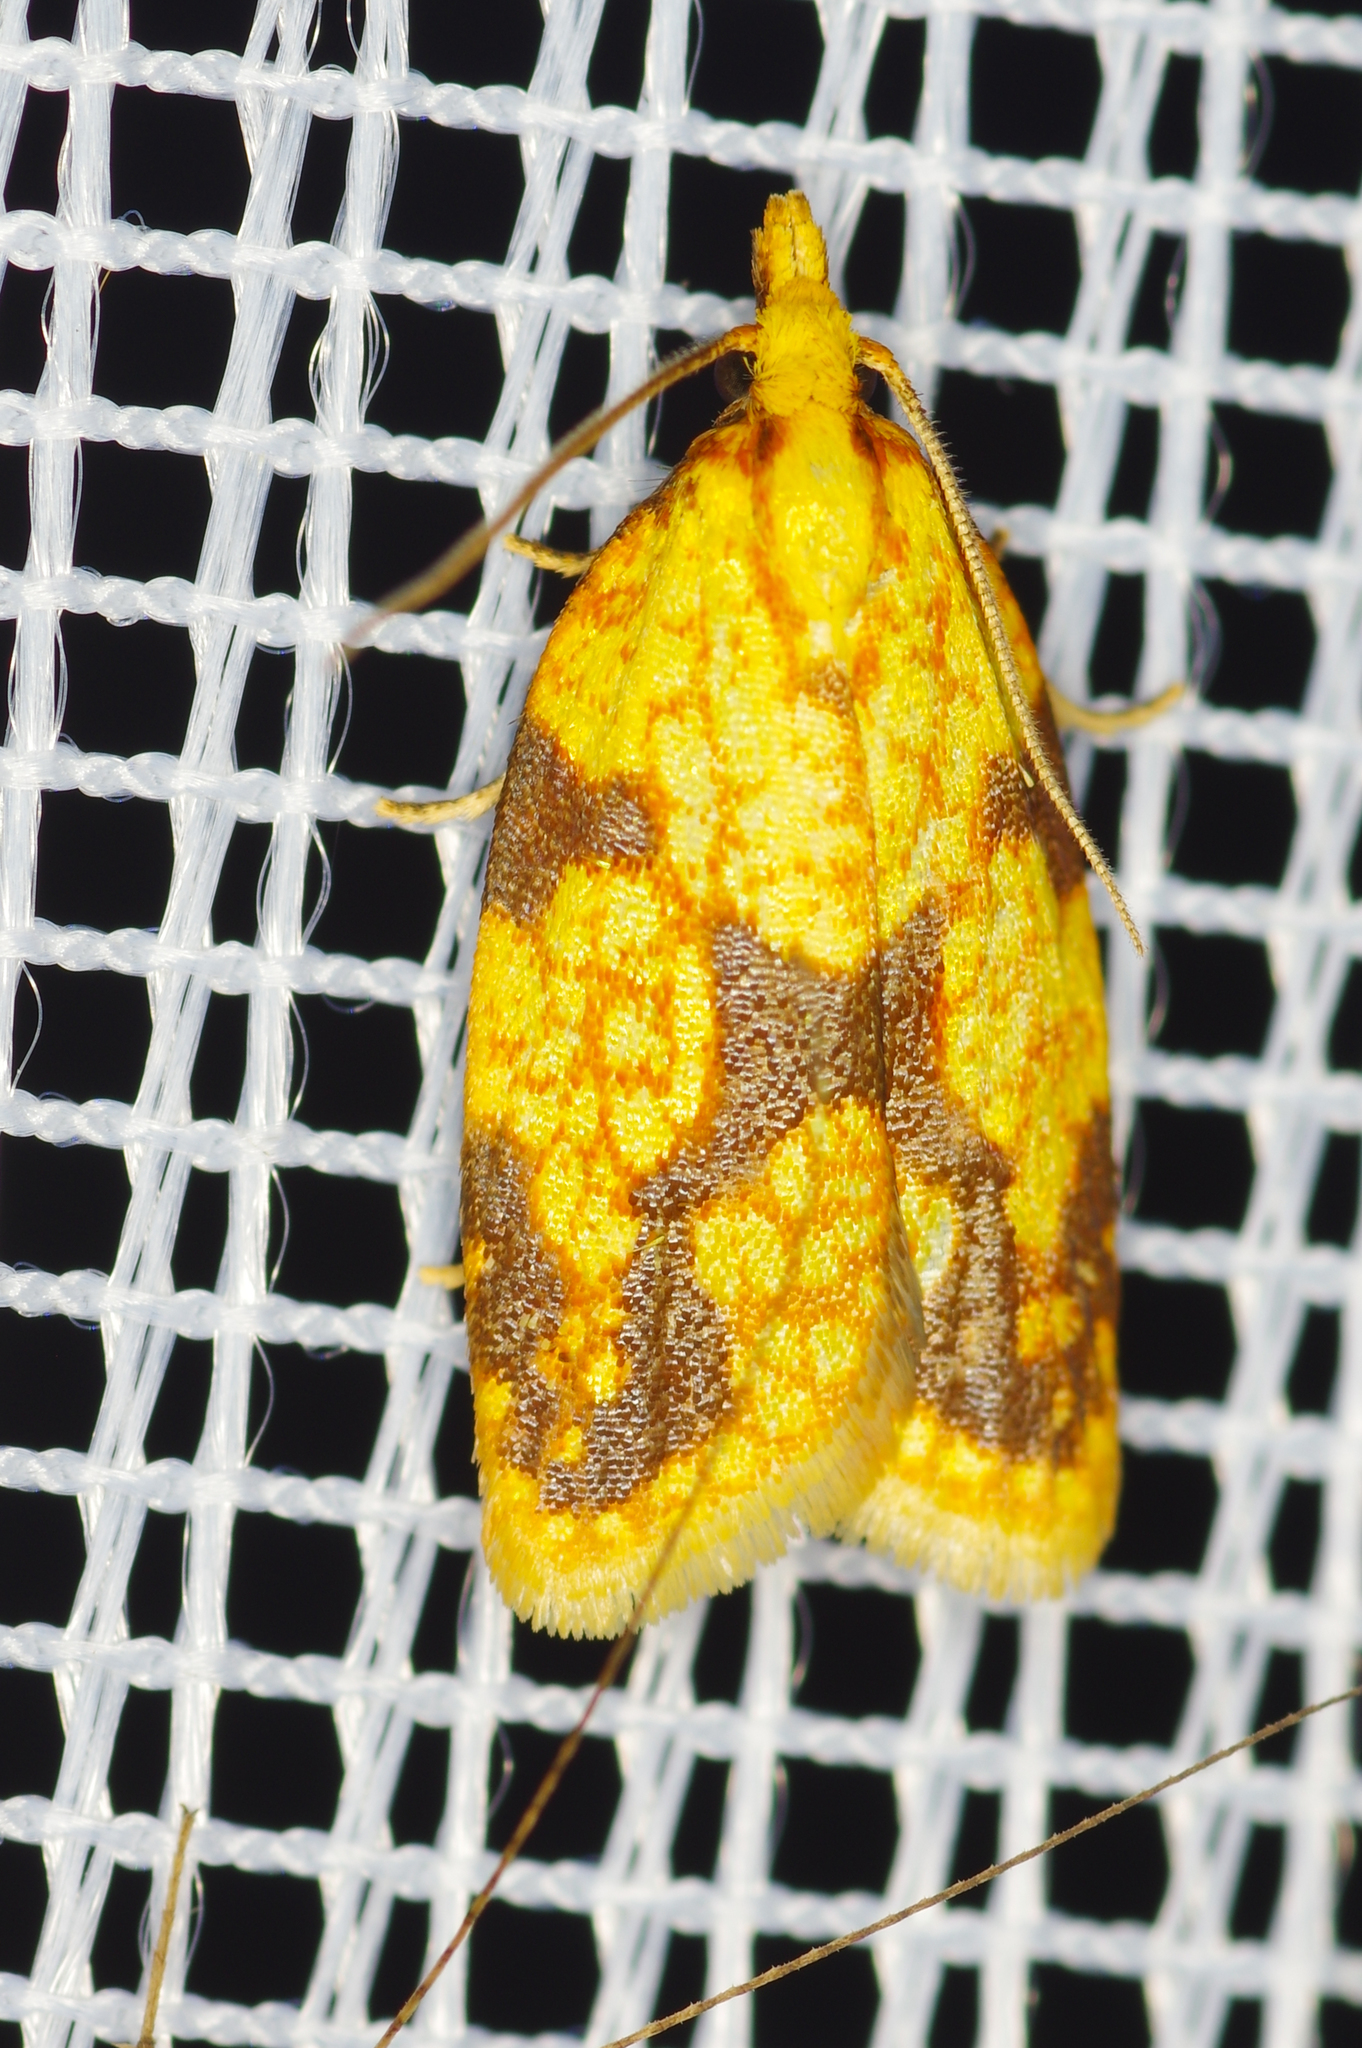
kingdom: Animalia
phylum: Arthropoda
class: Insecta
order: Lepidoptera
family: Tortricidae
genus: Sparganothis
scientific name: Sparganothis sulfureana
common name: Sparganothis fruitworm moth
